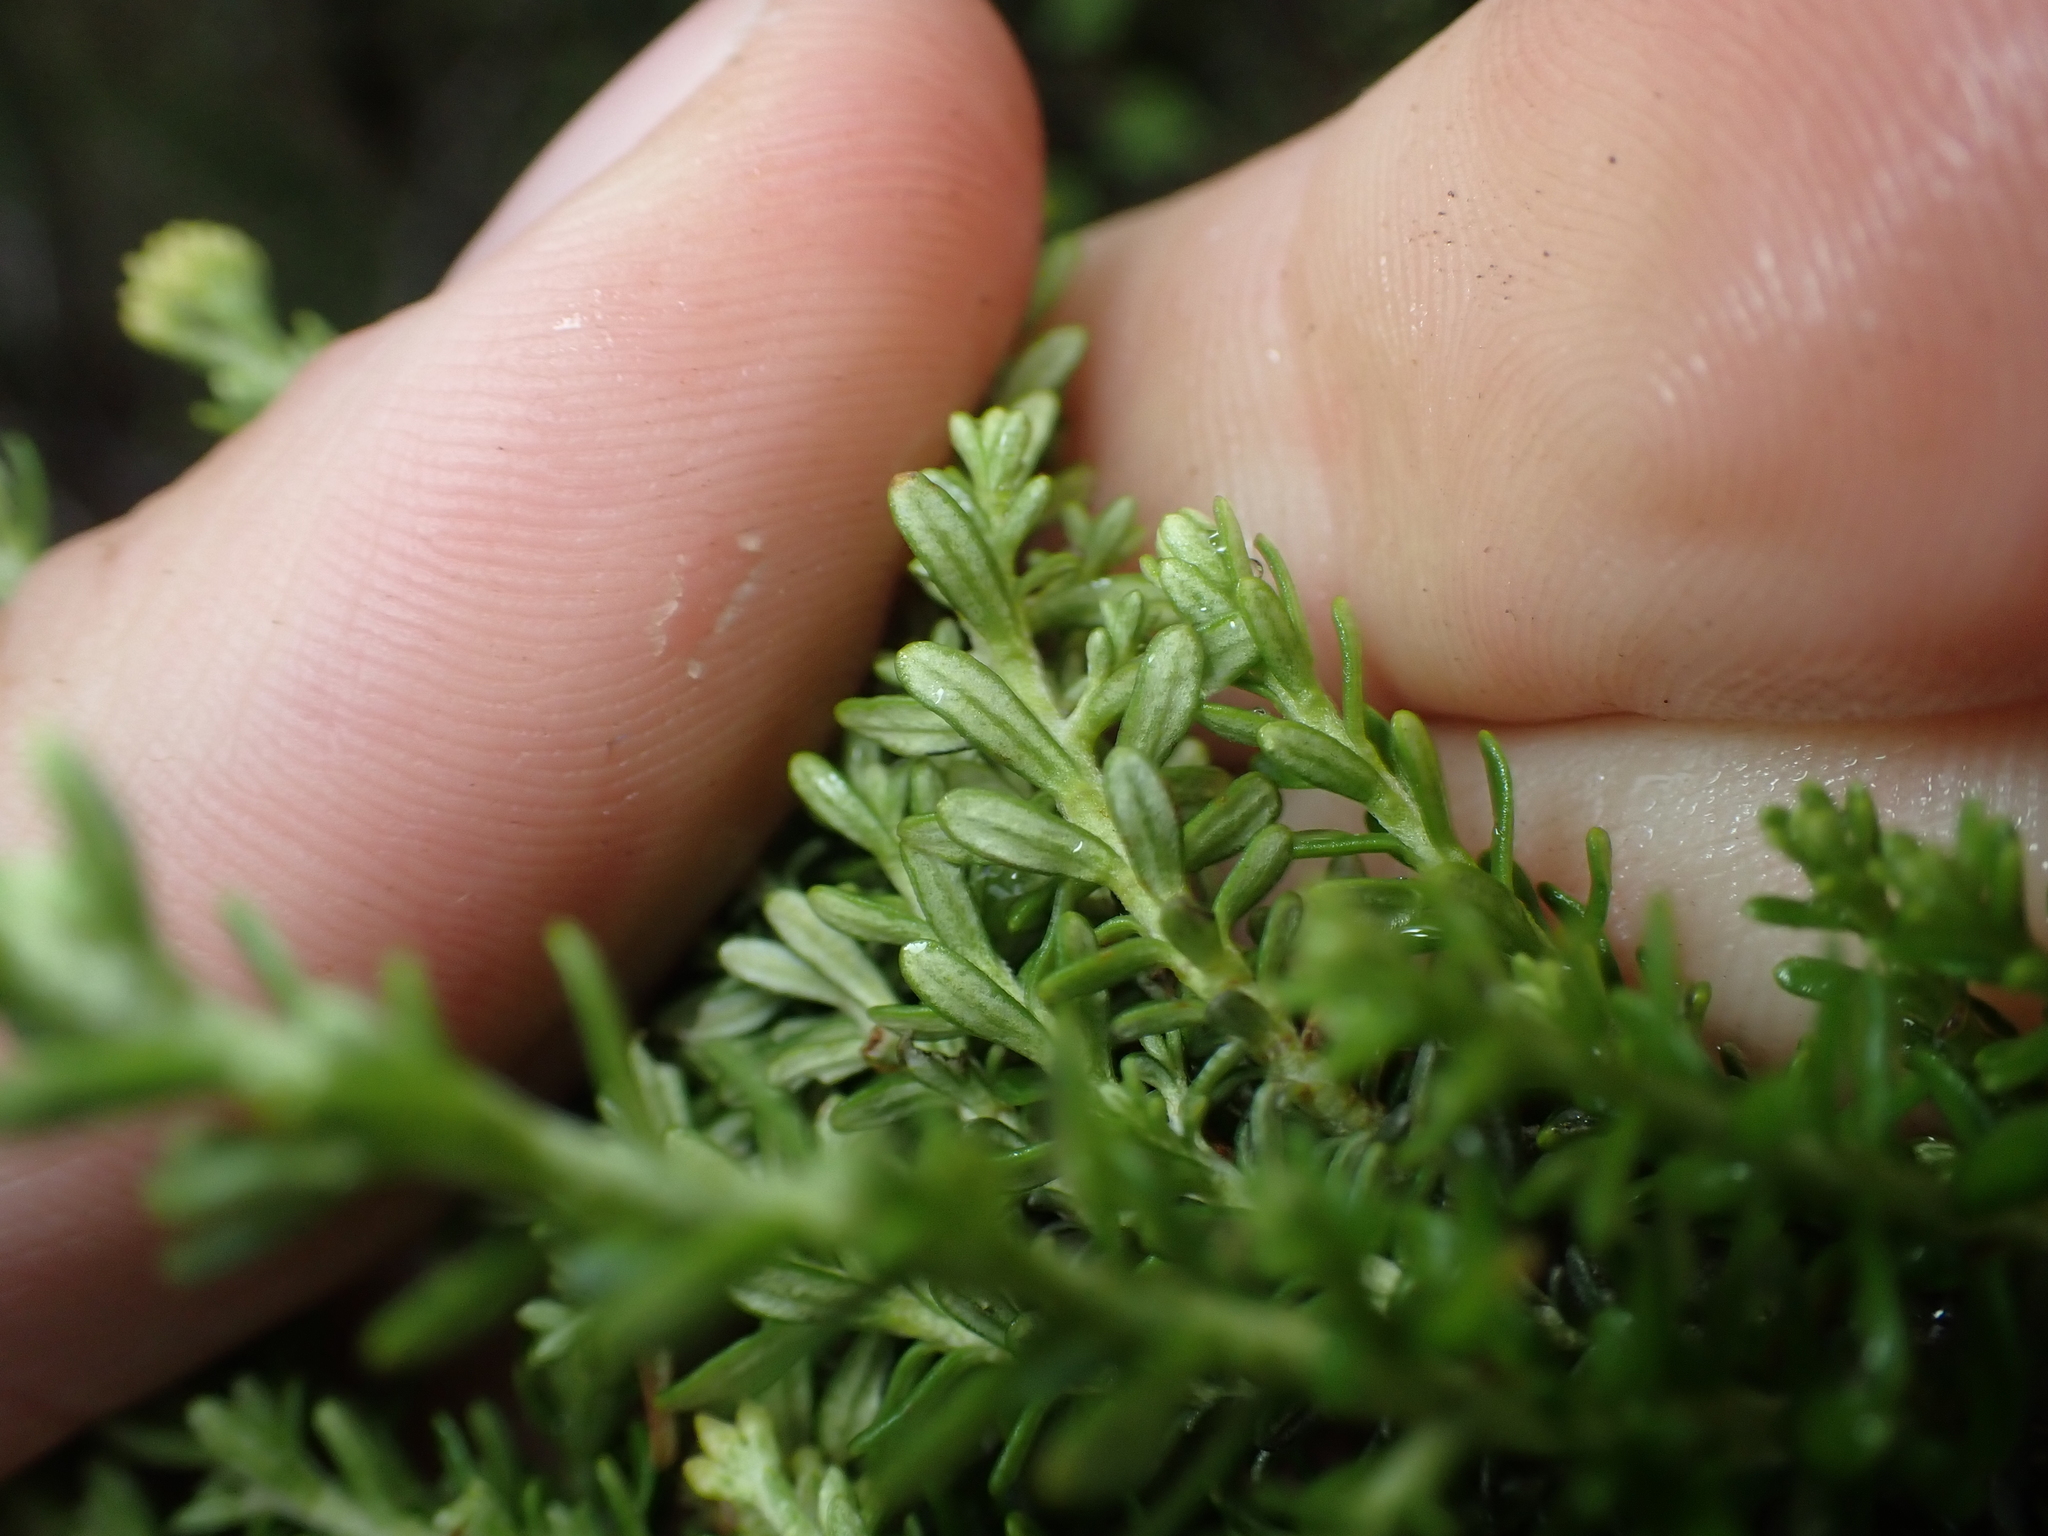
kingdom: Plantae
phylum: Tracheophyta
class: Magnoliopsida
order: Asterales
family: Asteraceae
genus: Ozothamnus
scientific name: Ozothamnus leptophyllus
